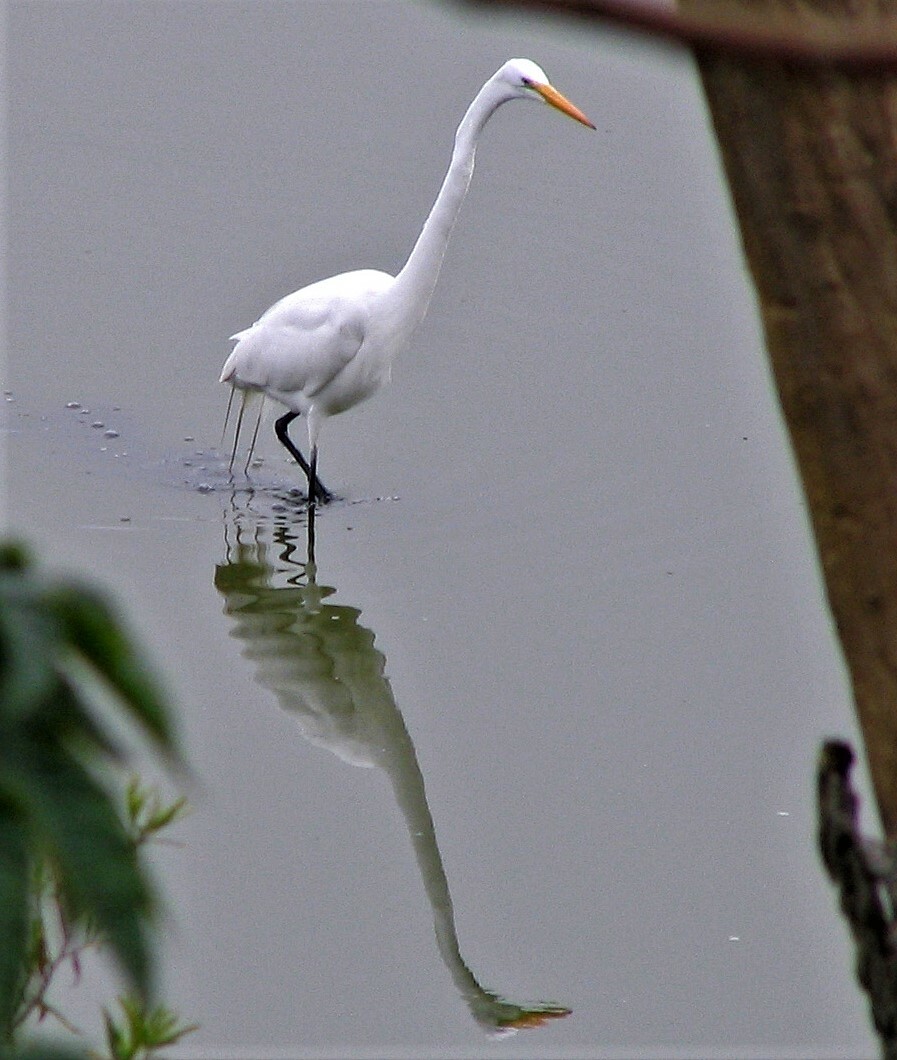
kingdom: Animalia
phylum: Chordata
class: Aves
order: Pelecaniformes
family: Ardeidae
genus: Ardea
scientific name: Ardea alba
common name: Great egret
